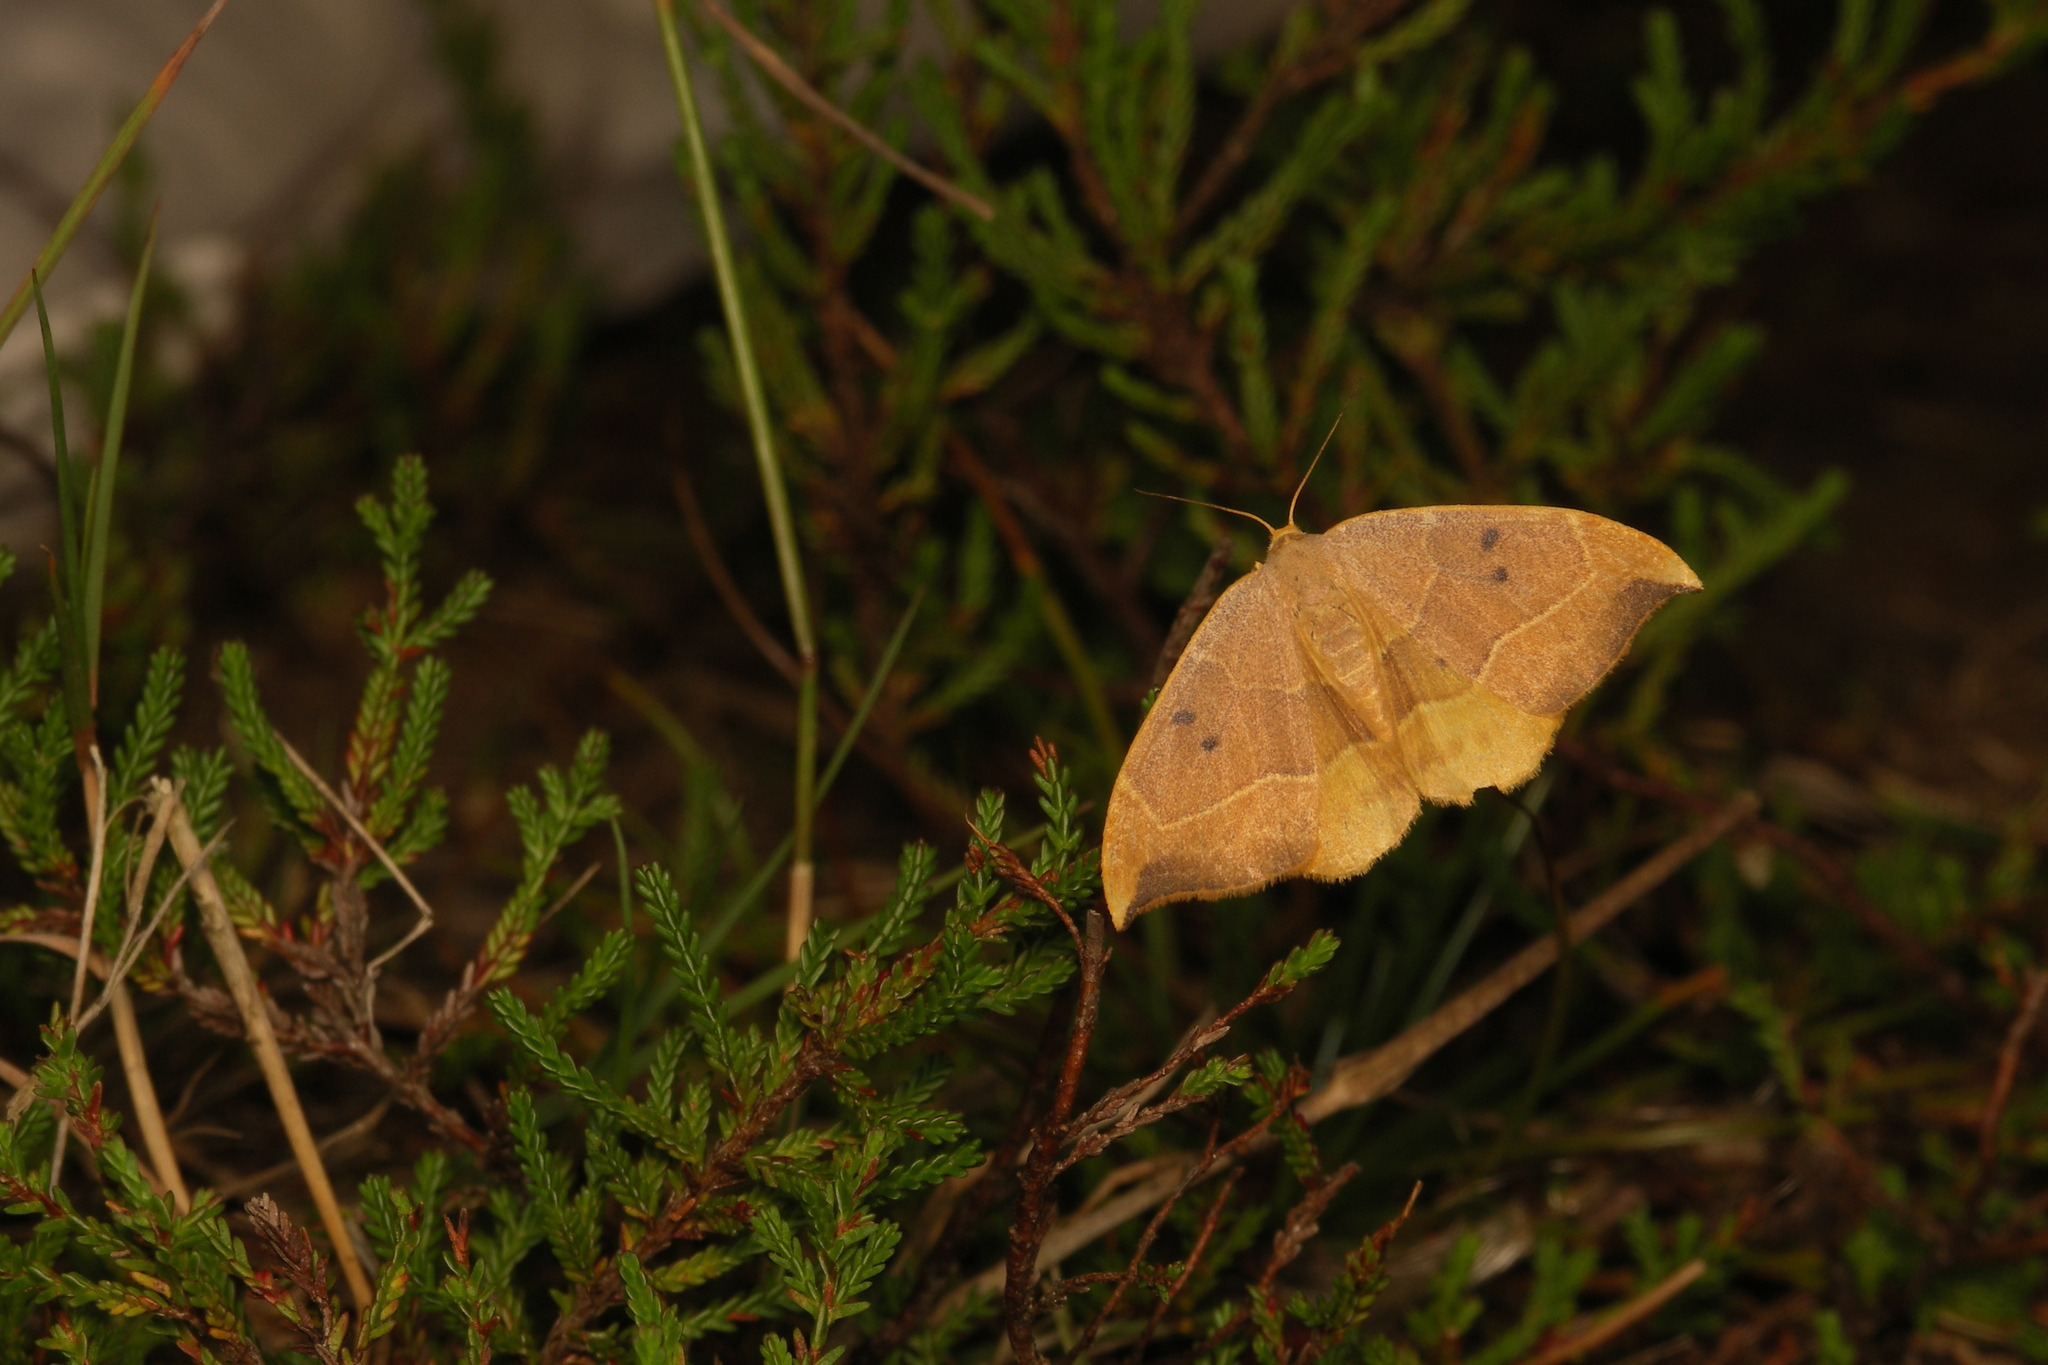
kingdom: Animalia
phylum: Arthropoda
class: Insecta
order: Lepidoptera
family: Drepanidae
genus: Watsonalla
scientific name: Watsonalla binaria
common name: Oak hook-tip
